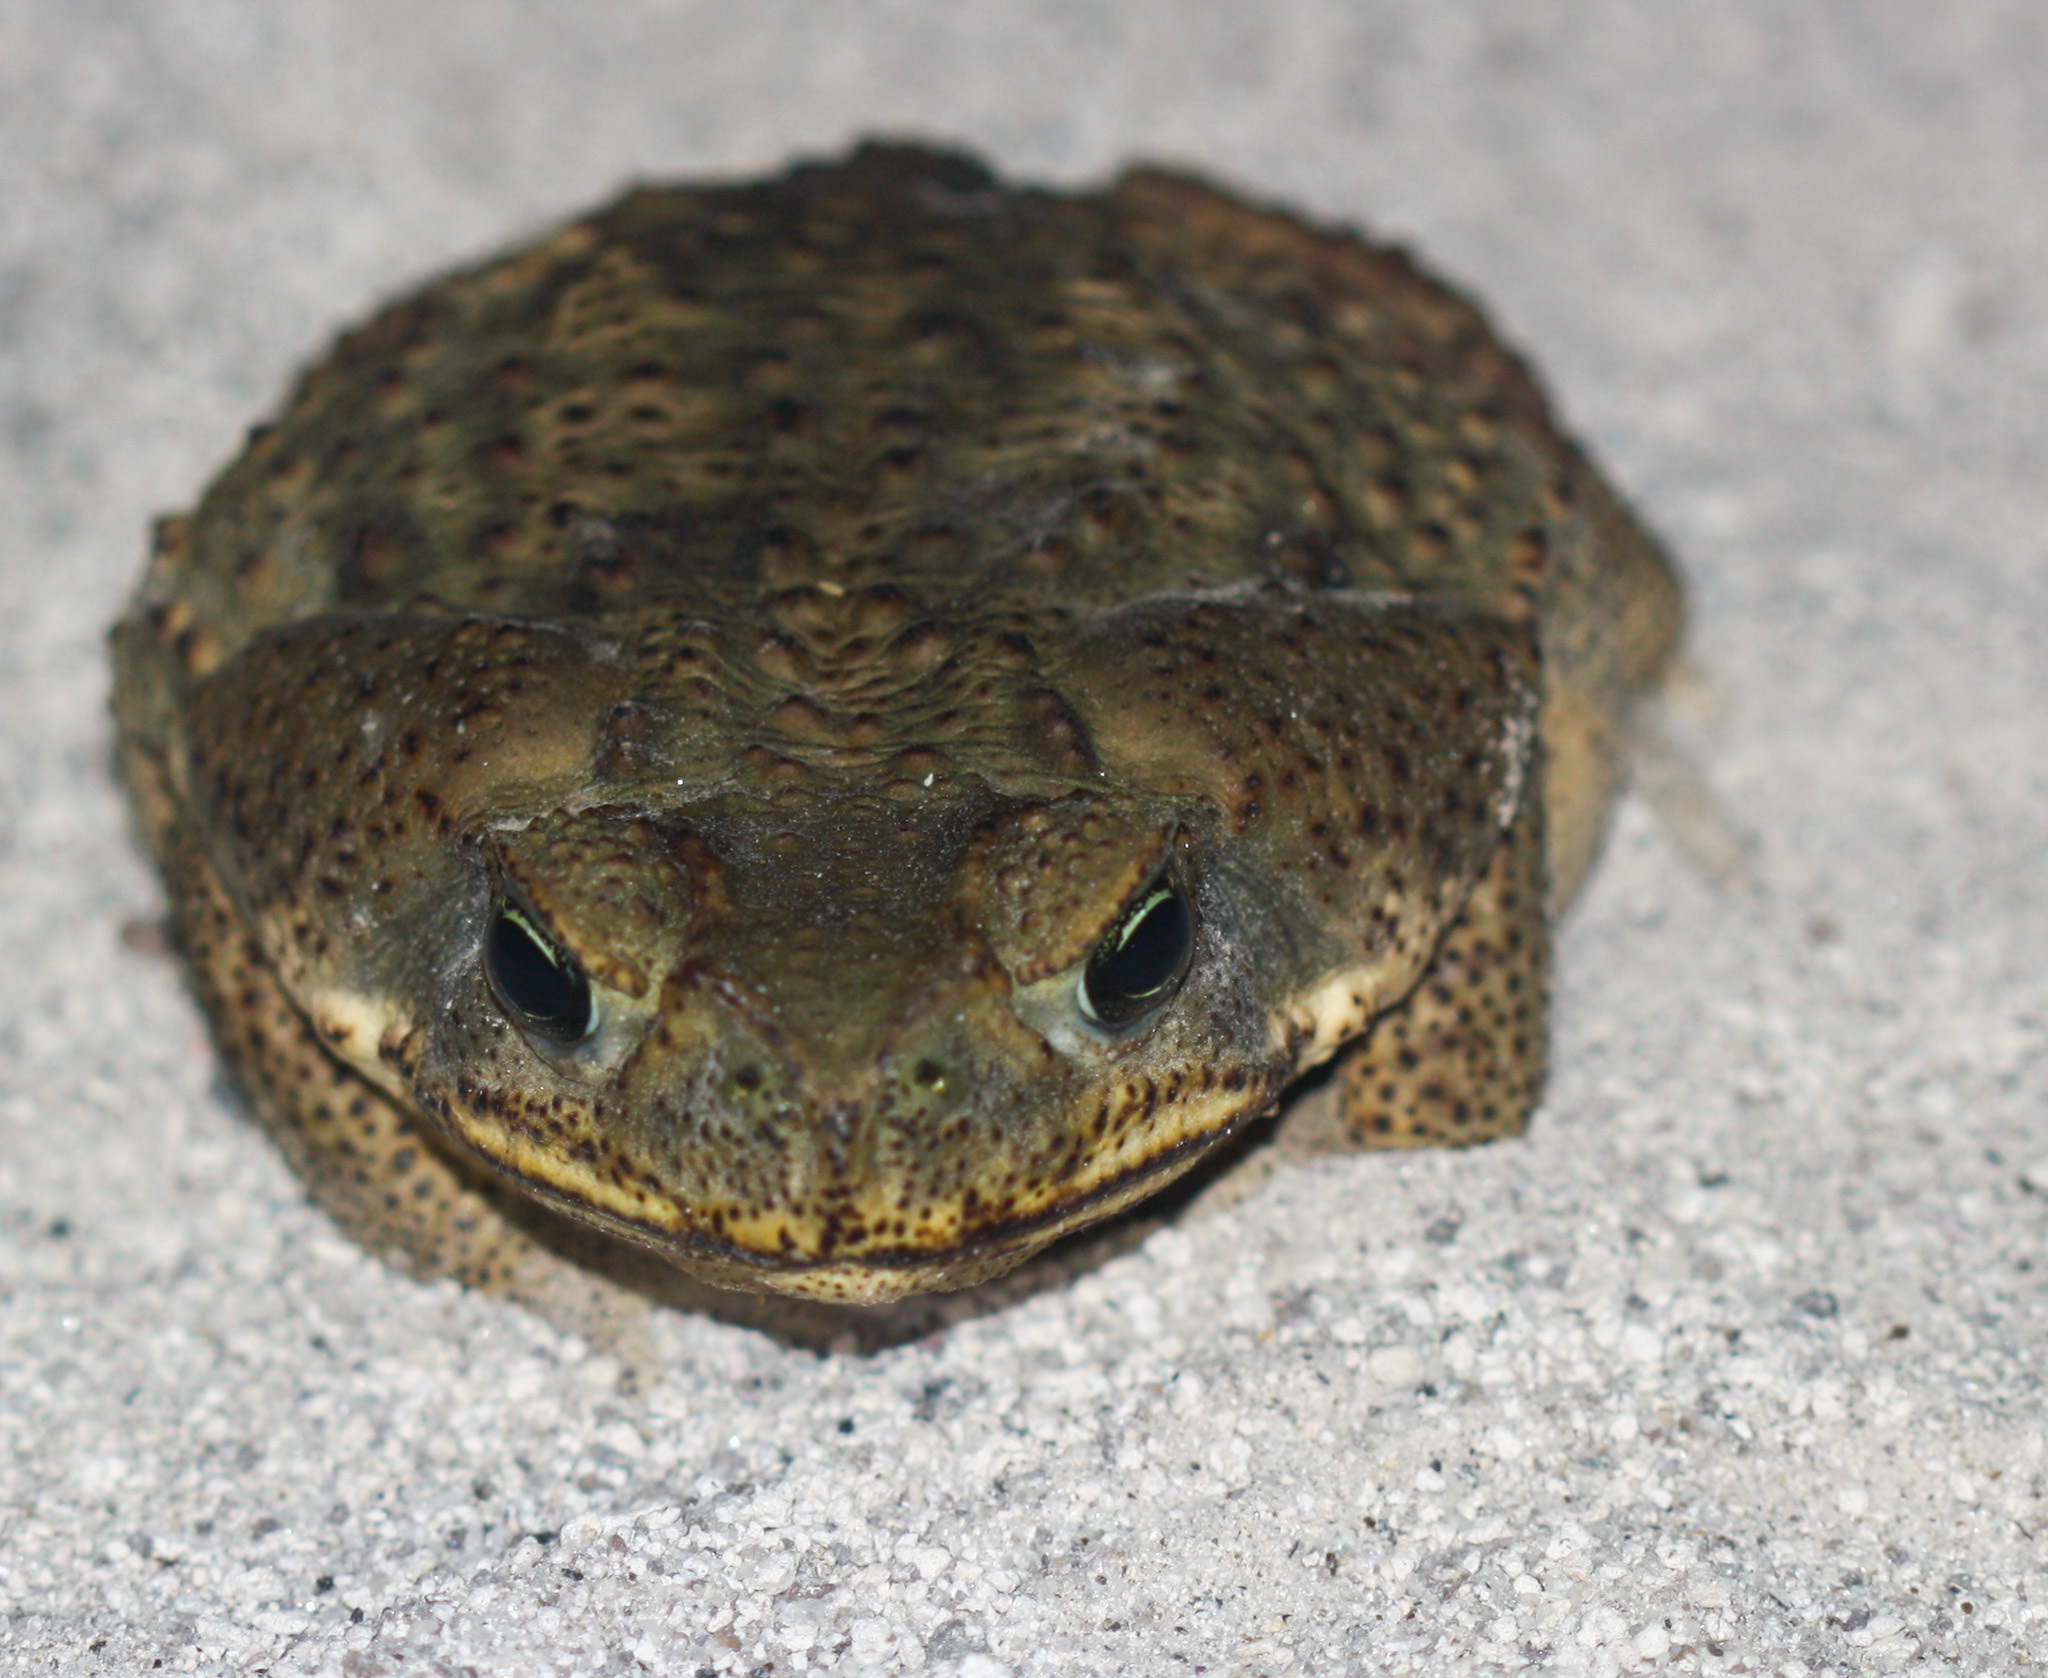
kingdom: Animalia
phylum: Chordata
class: Amphibia
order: Anura
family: Bufonidae
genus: Rhinella
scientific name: Rhinella horribilis
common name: Mesoamerican cane toad
